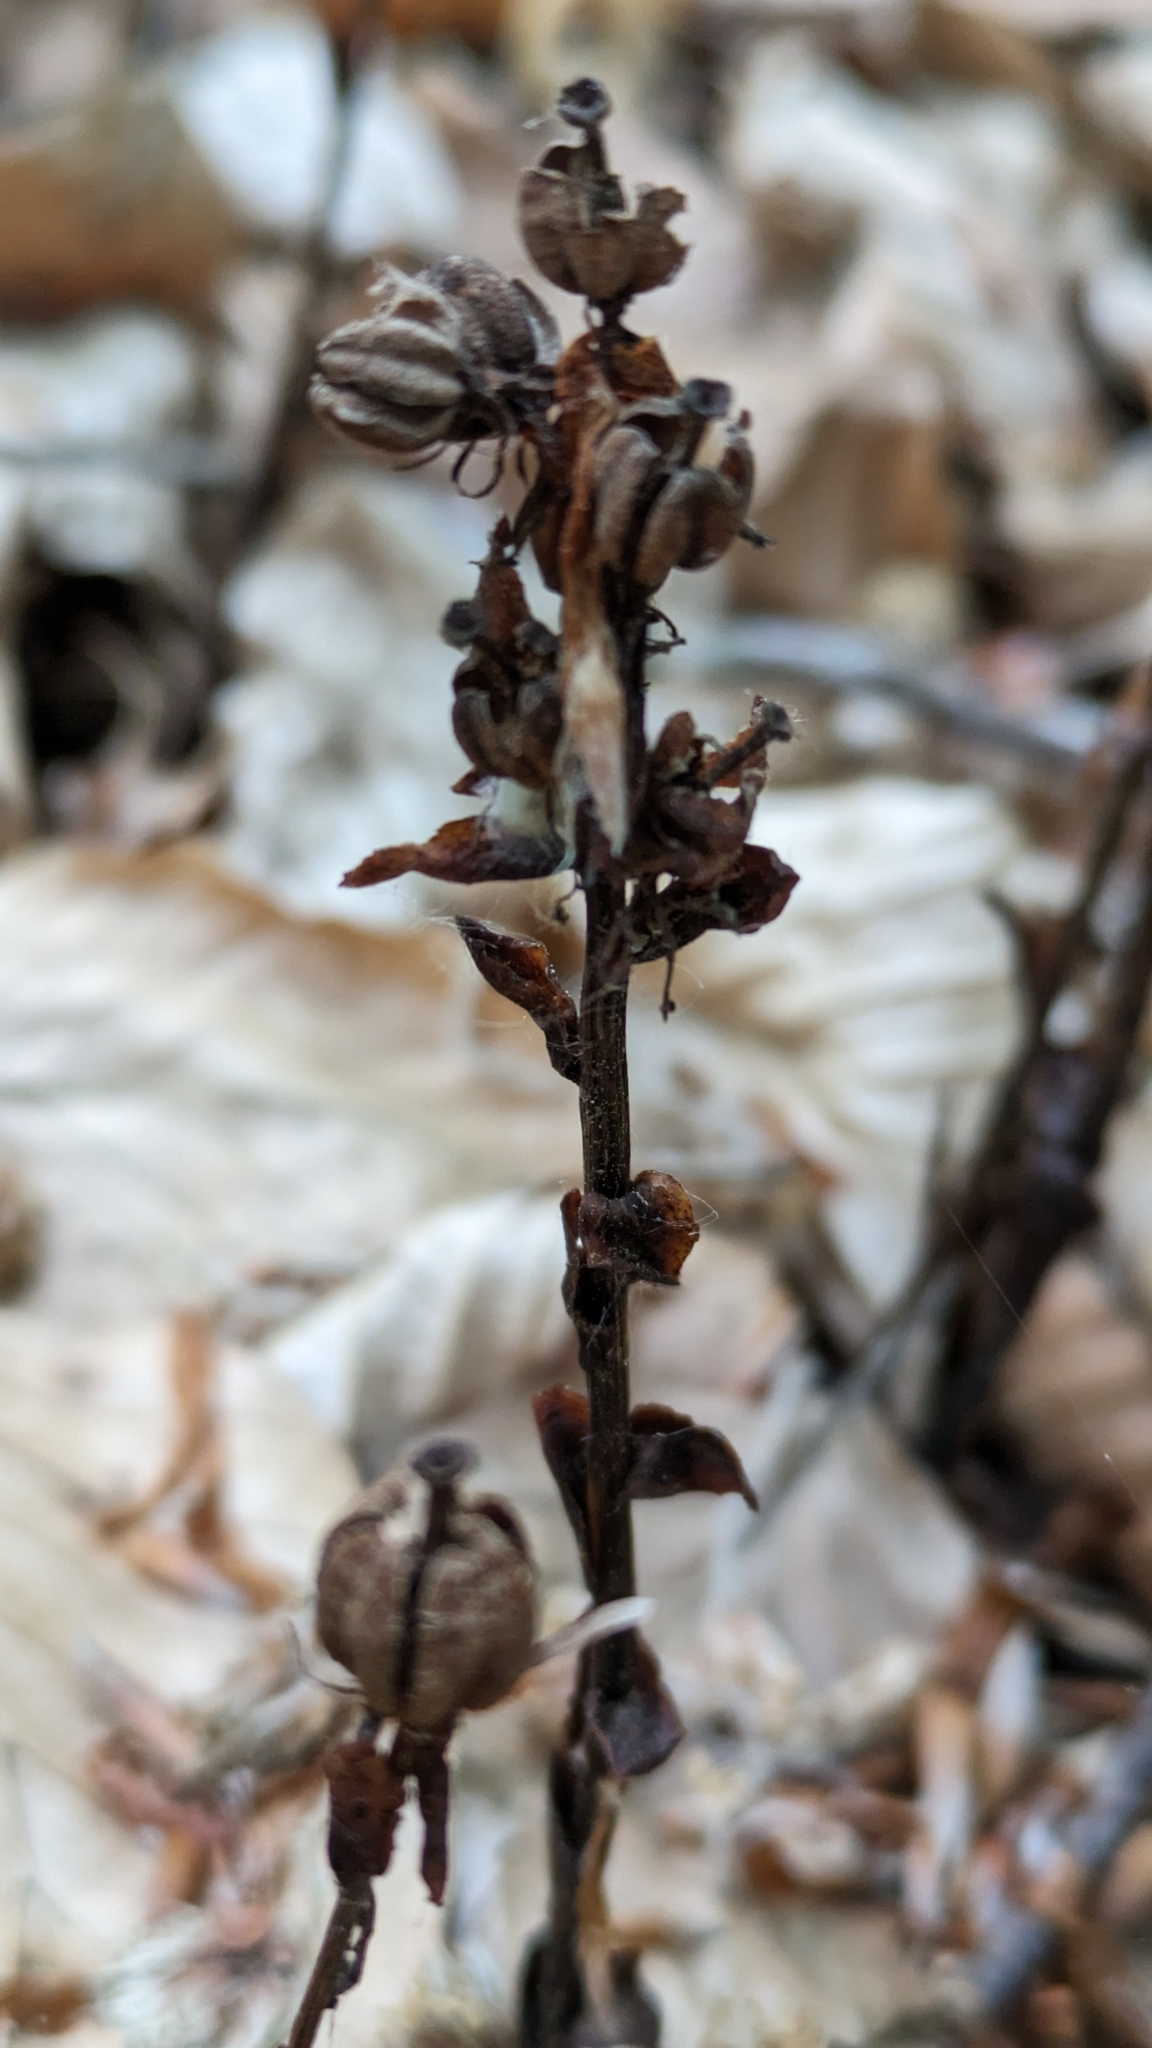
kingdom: Plantae
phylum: Tracheophyta
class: Magnoliopsida
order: Ericales
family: Ericaceae
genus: Hypopitys
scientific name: Hypopitys monotropa
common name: Yellow bird's-nest
